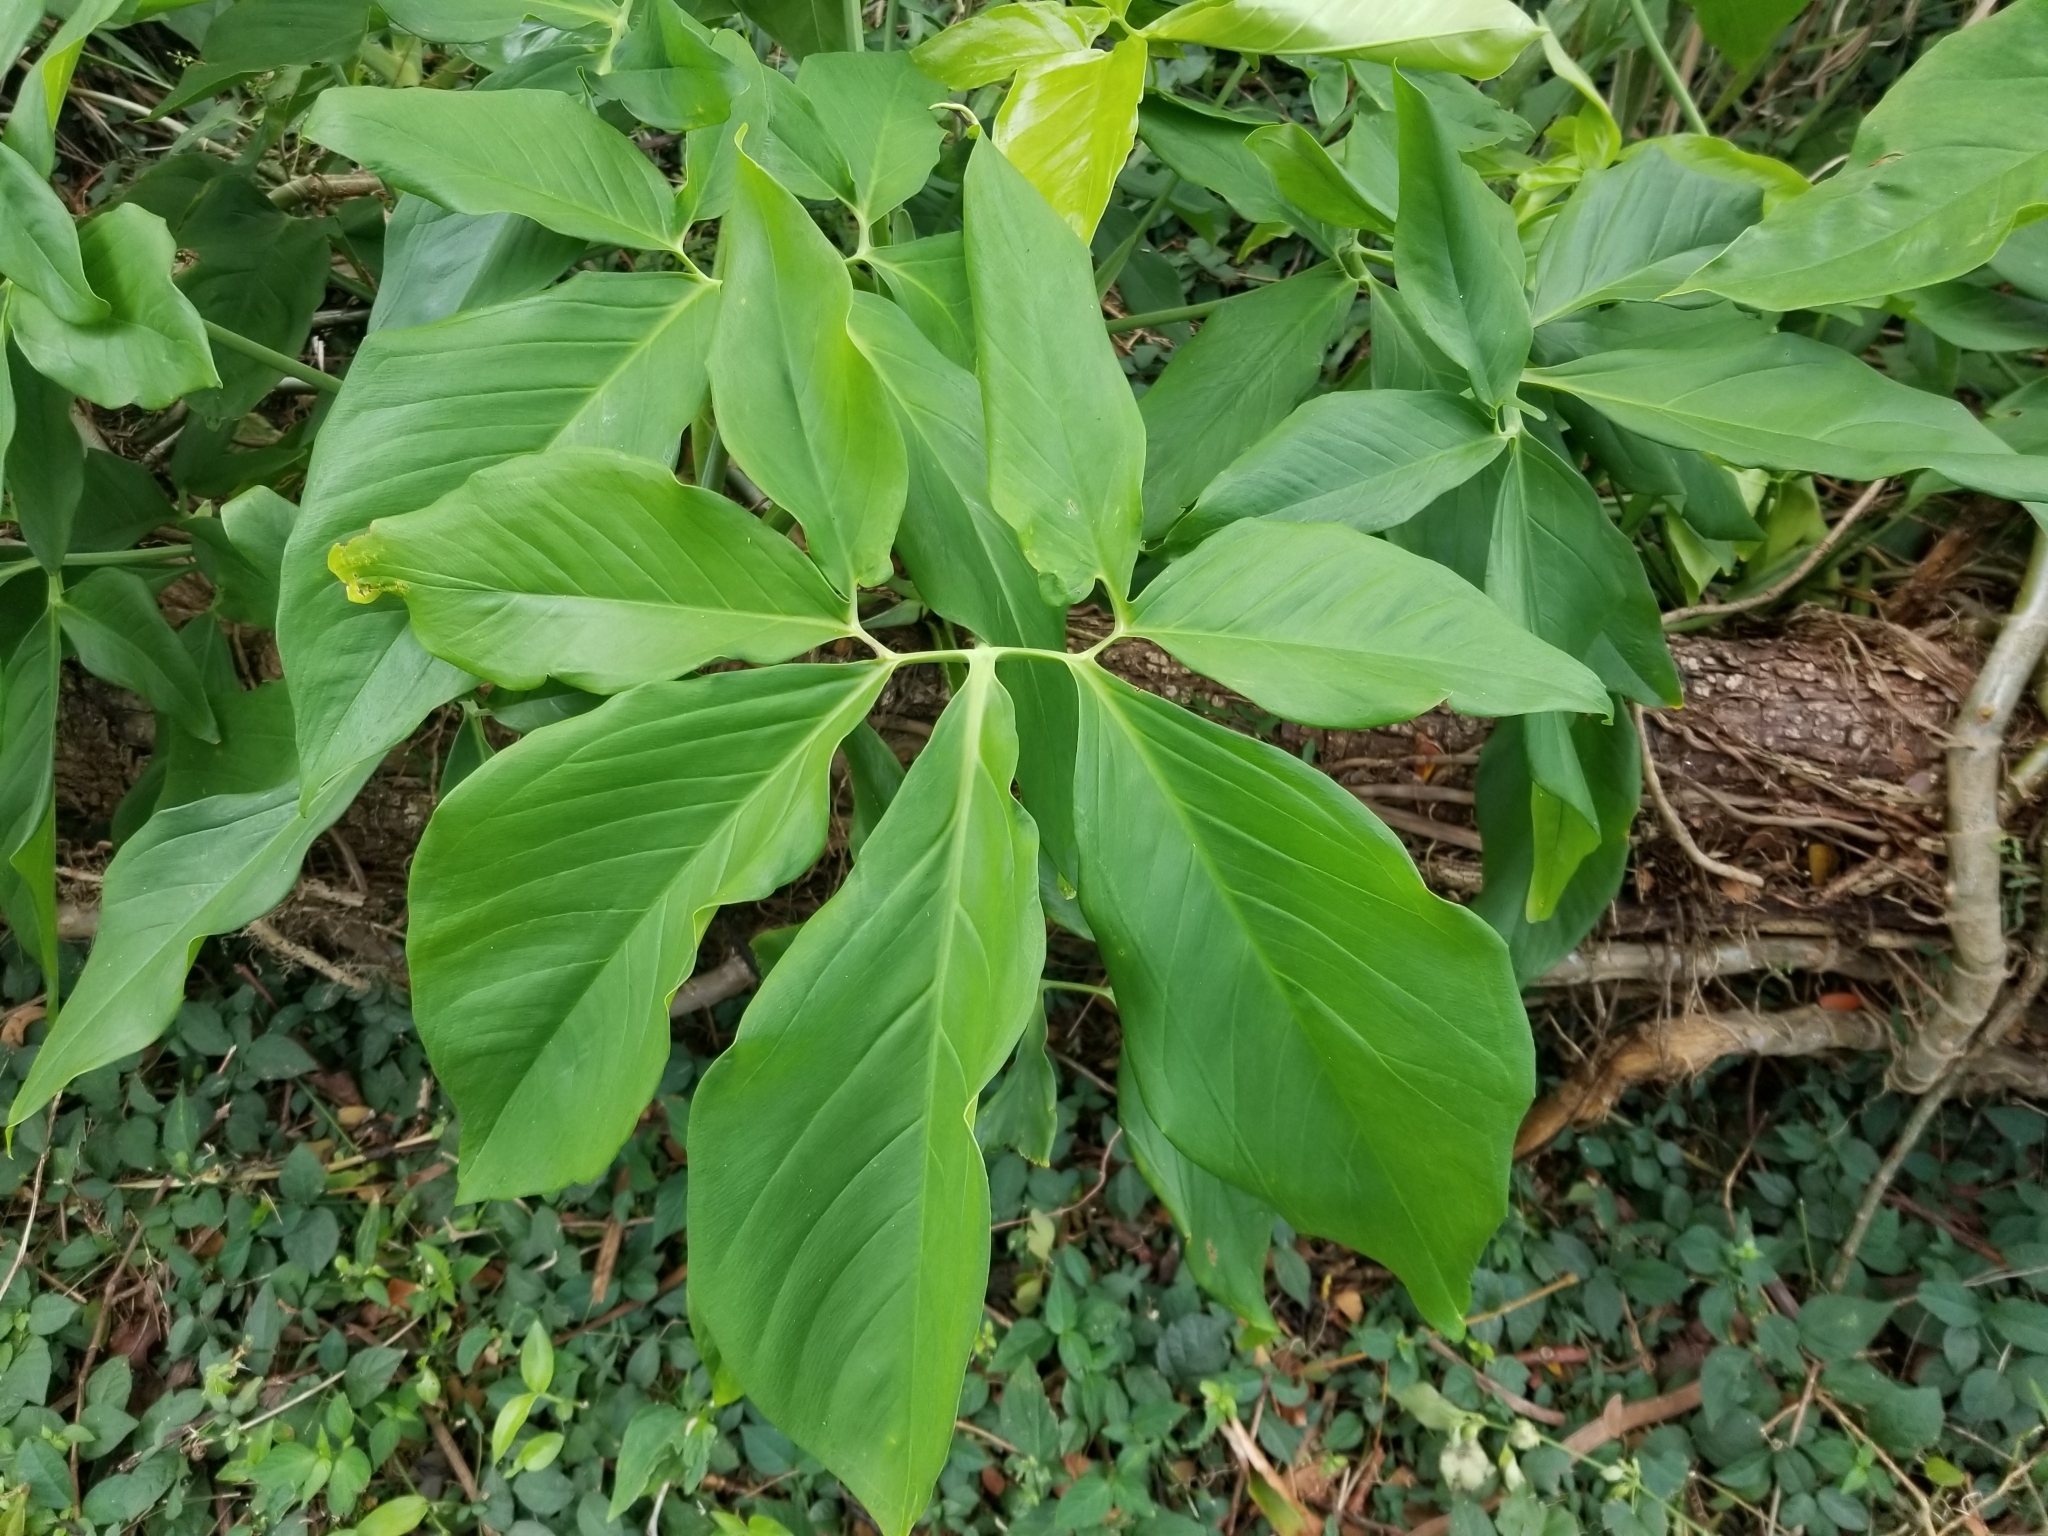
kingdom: Plantae
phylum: Tracheophyta
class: Liliopsida
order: Alismatales
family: Araceae
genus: Syngonium
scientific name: Syngonium podophyllum
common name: American evergreen
